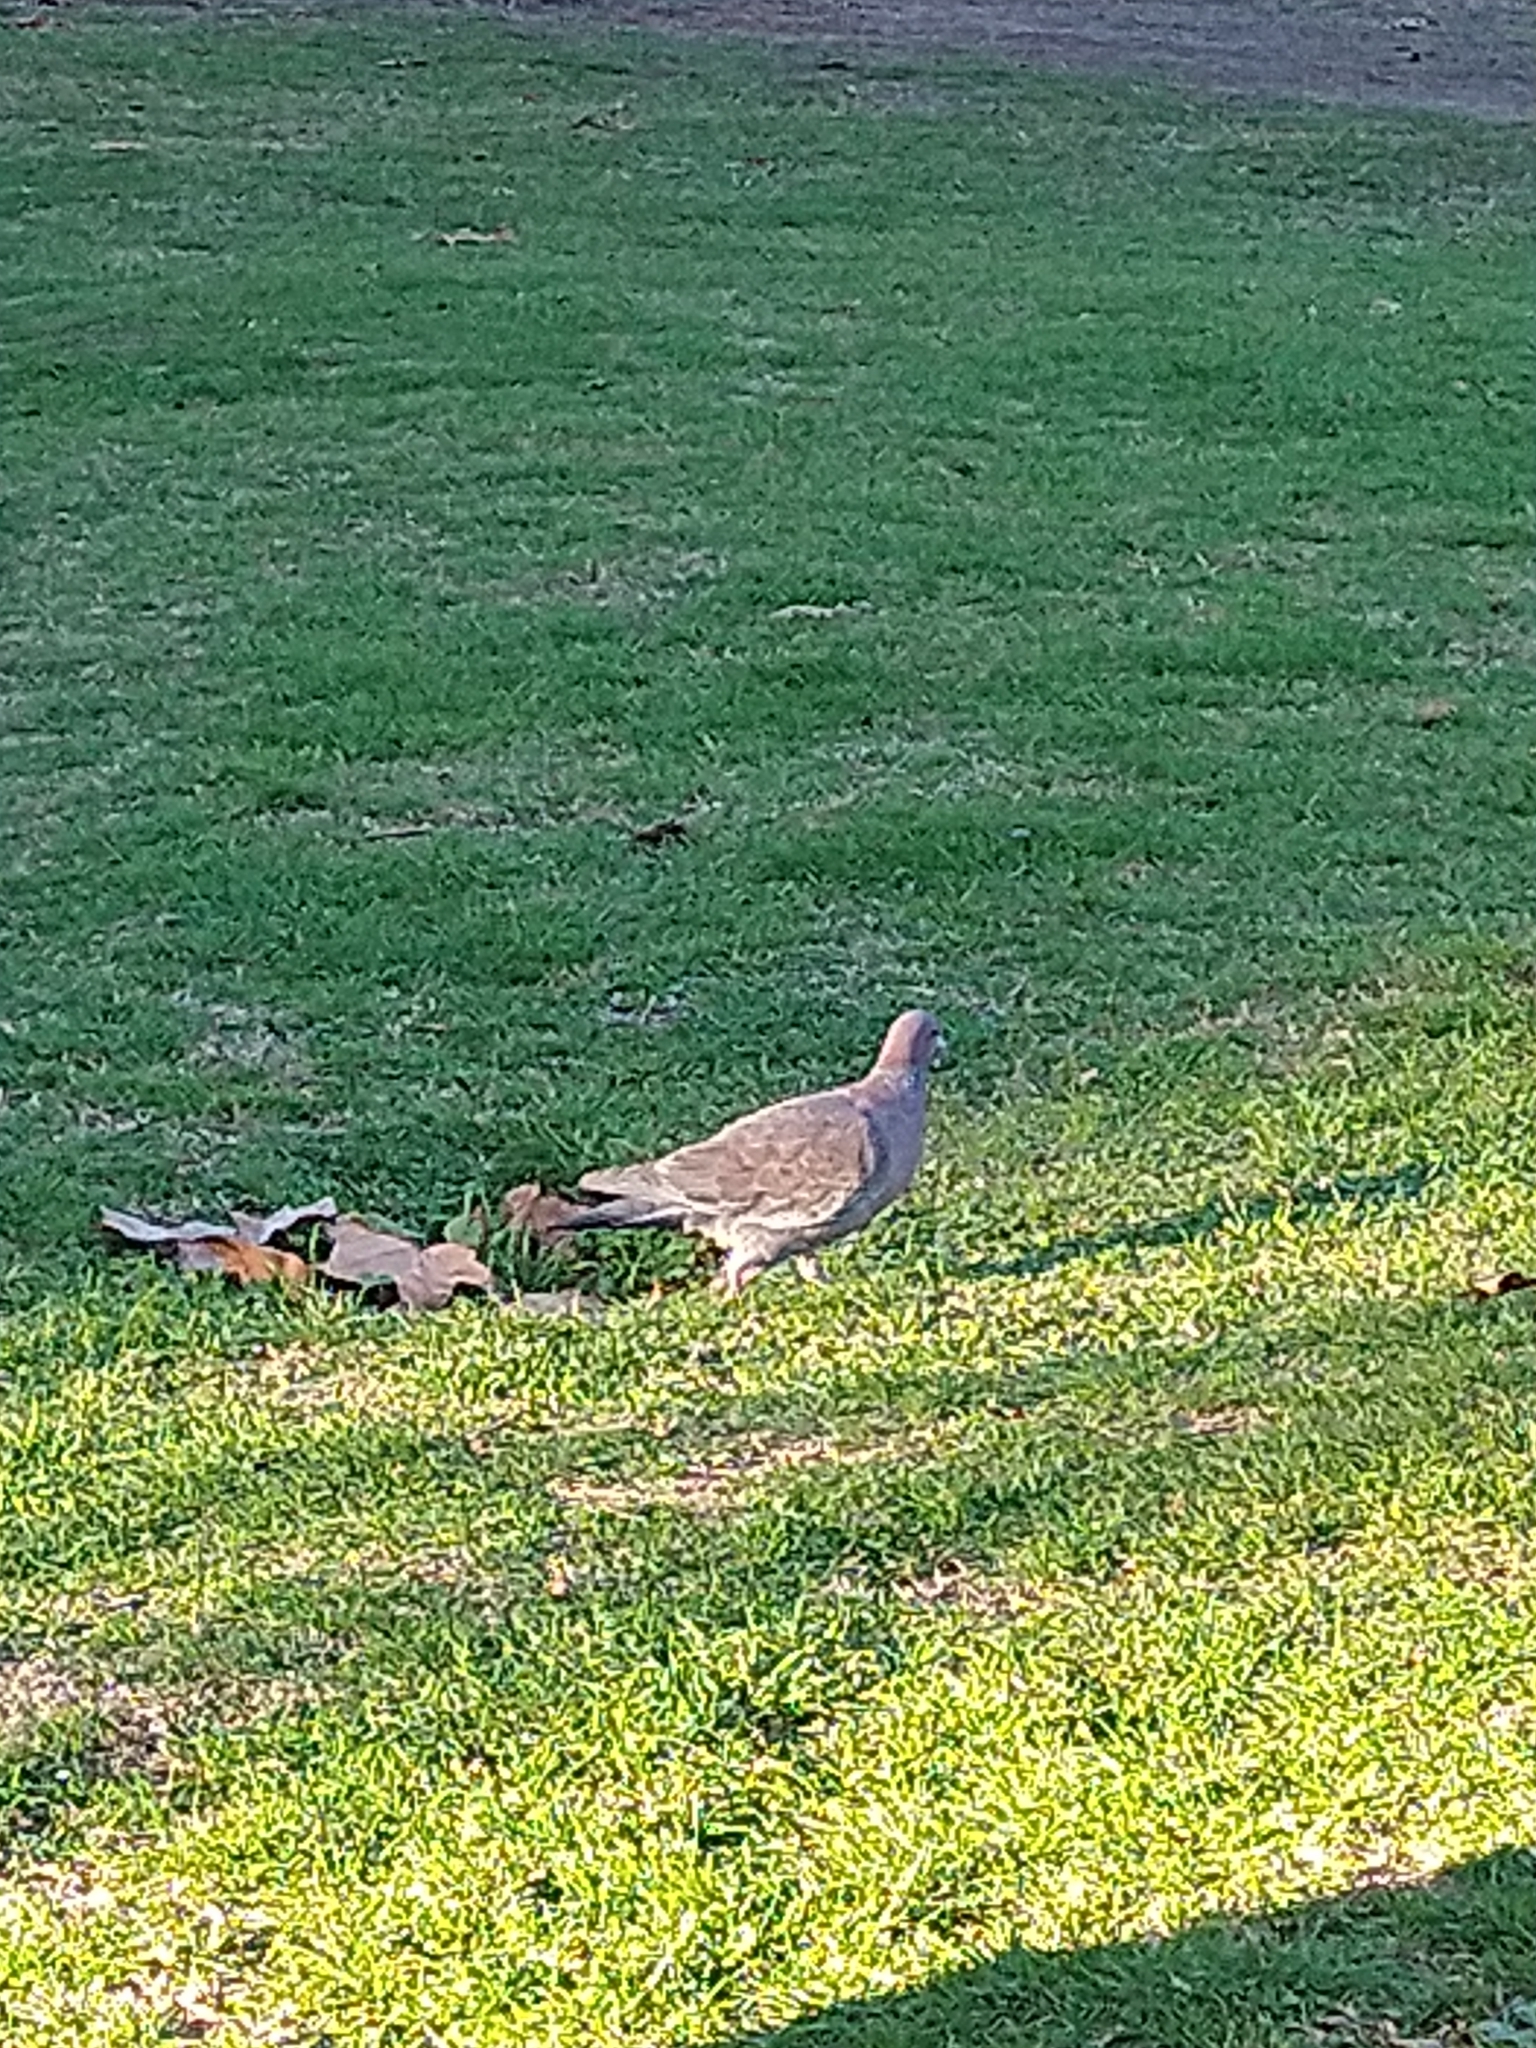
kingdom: Animalia
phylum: Chordata
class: Aves
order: Columbiformes
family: Columbidae
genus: Patagioenas
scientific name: Patagioenas picazuro
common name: Picazuro pigeon
